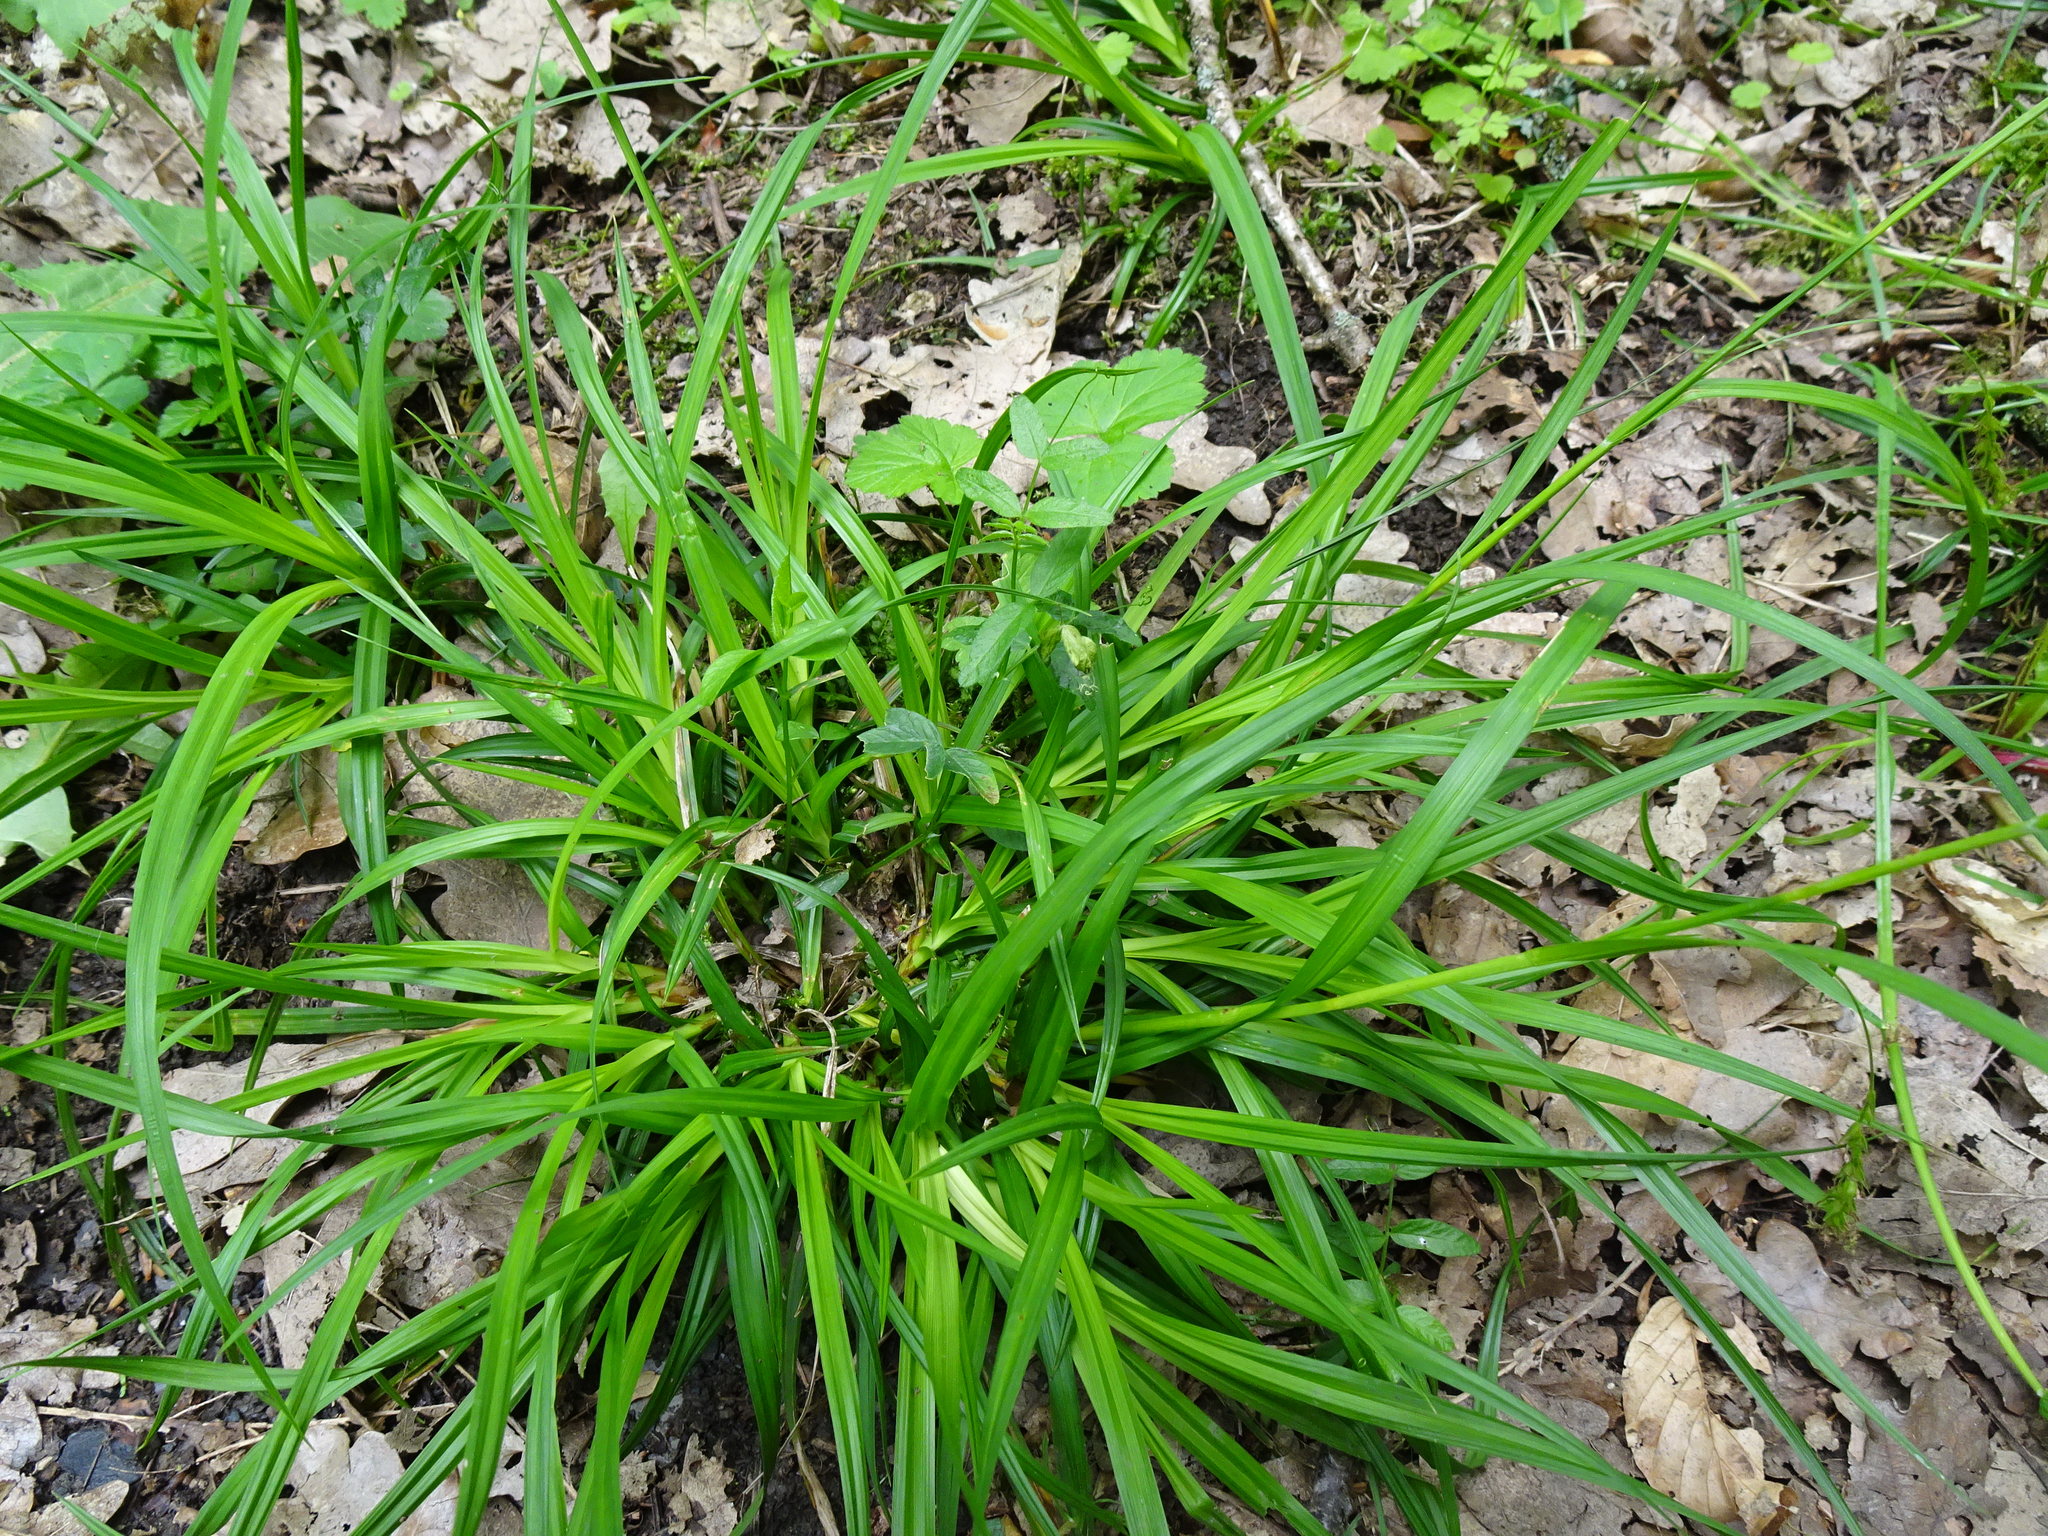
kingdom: Plantae
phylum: Tracheophyta
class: Liliopsida
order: Poales
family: Cyperaceae
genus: Carex
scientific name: Carex sylvatica
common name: Wood-sedge
